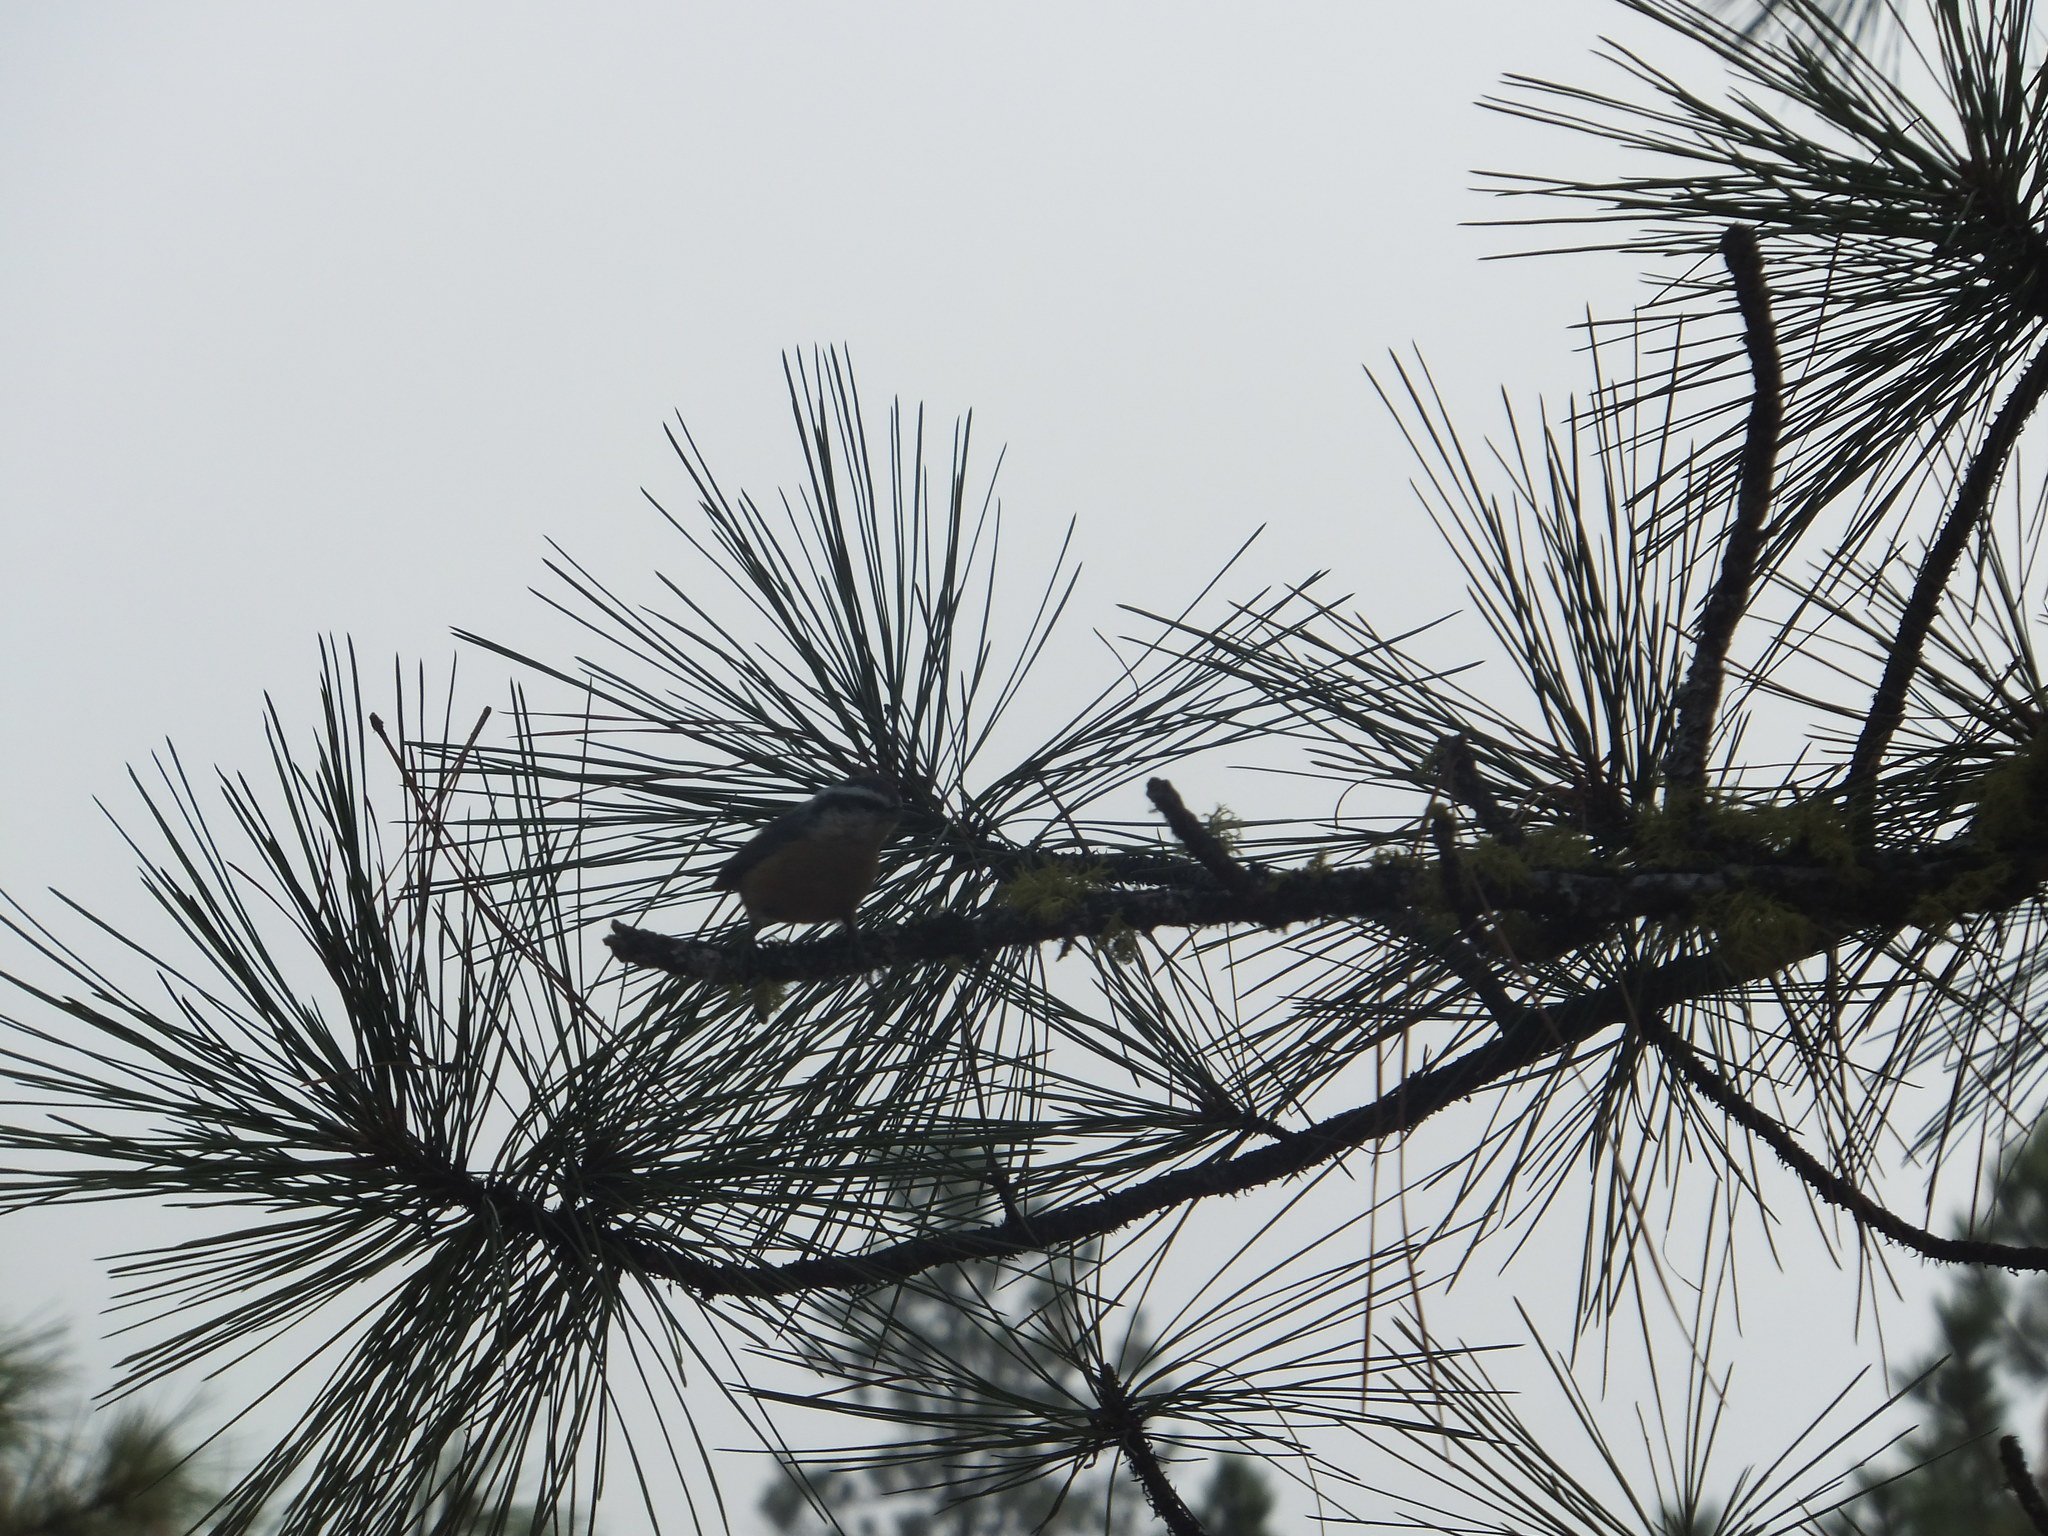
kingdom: Animalia
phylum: Chordata
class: Aves
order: Passeriformes
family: Sittidae
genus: Sitta
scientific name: Sitta canadensis
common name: Red-breasted nuthatch
